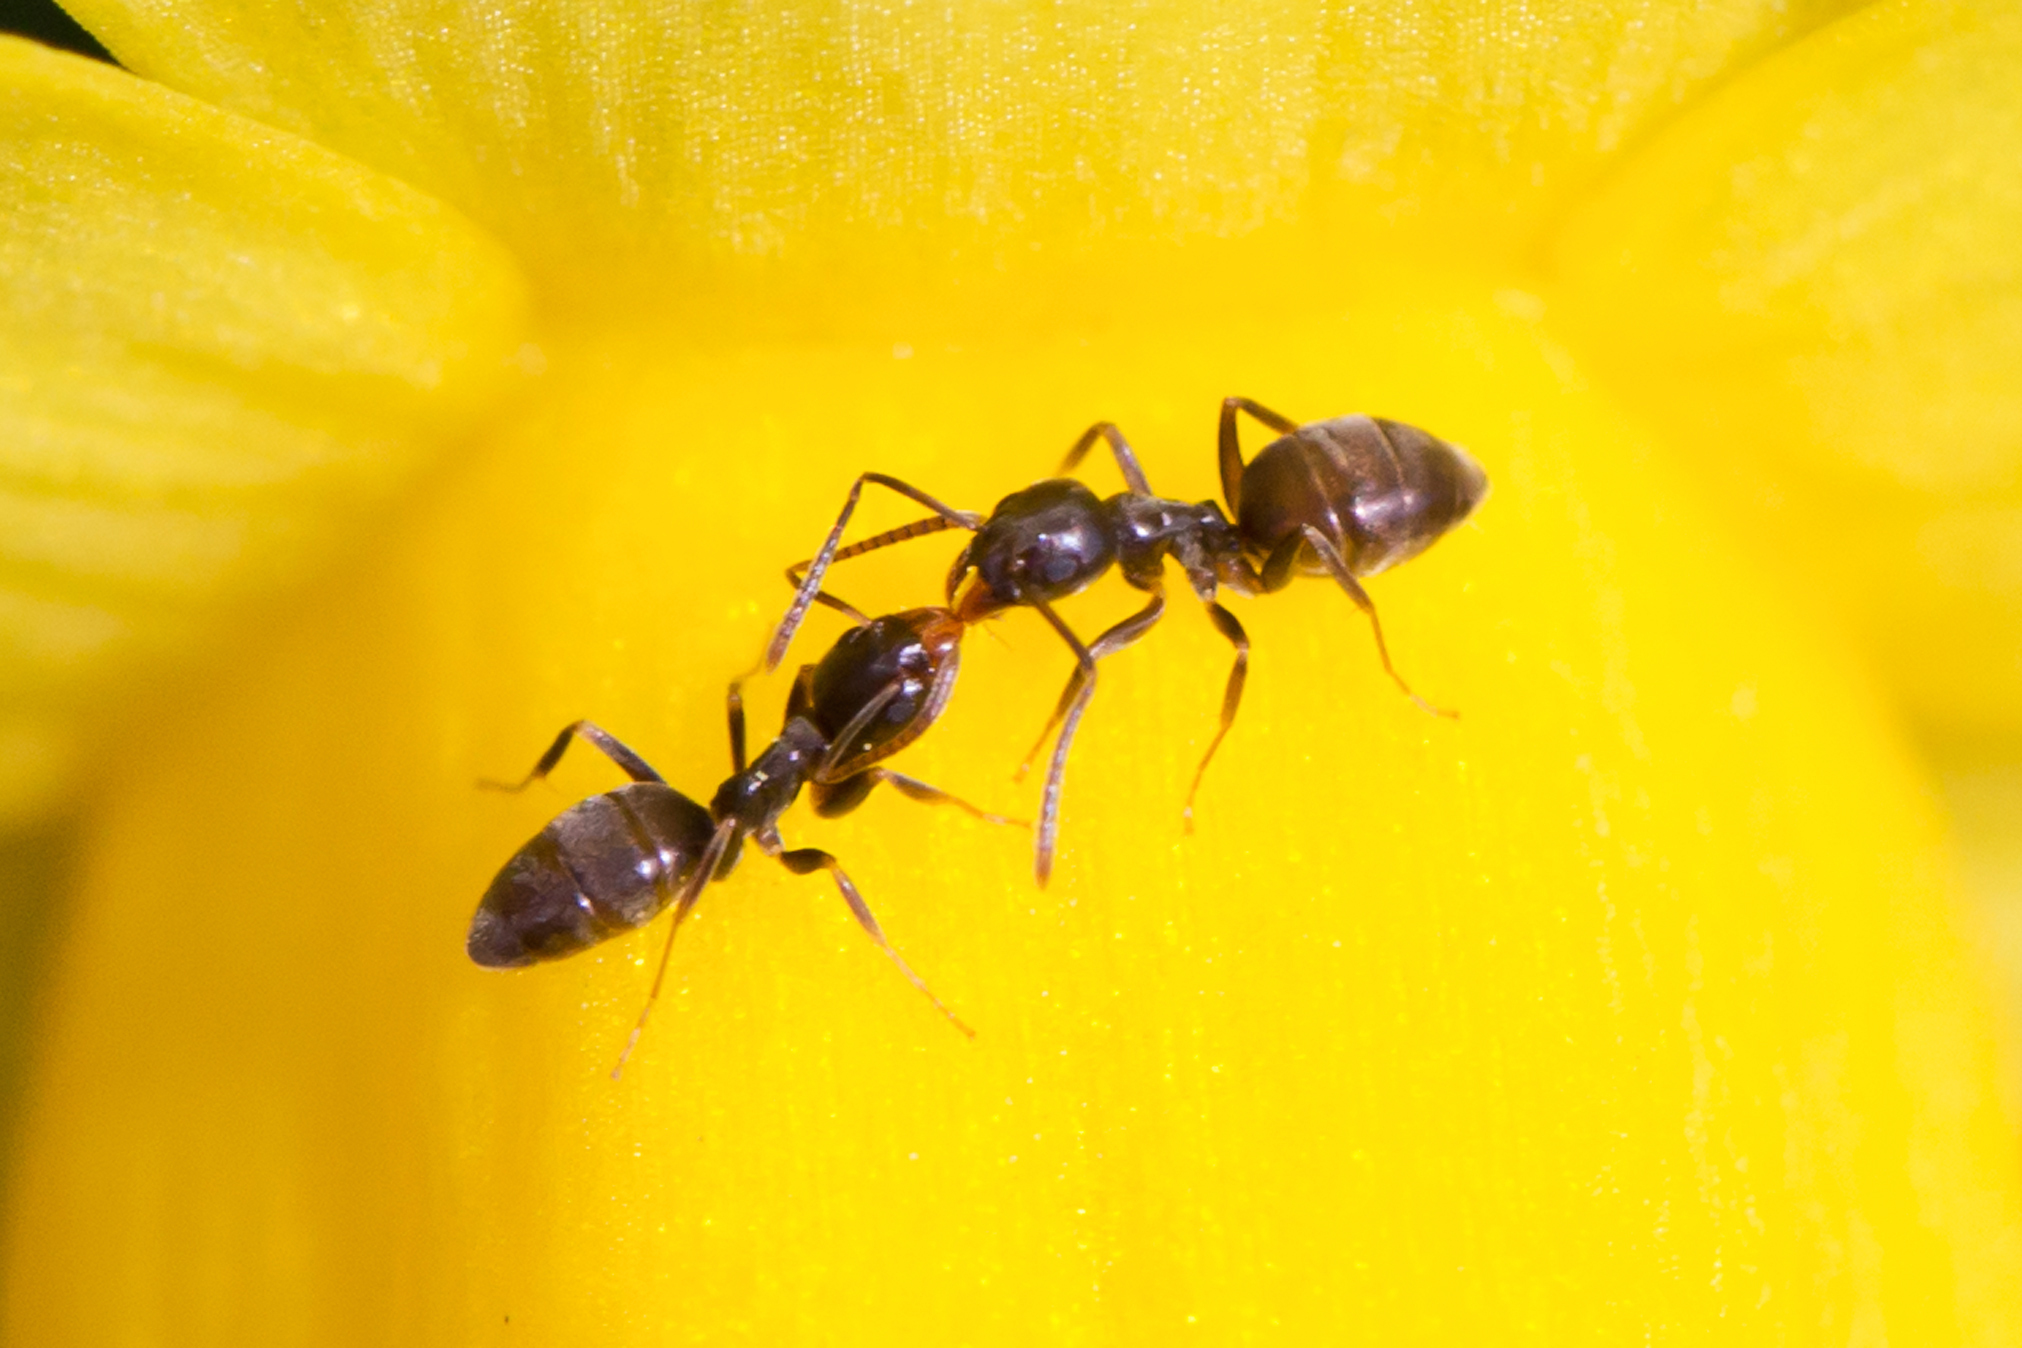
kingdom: Animalia
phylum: Arthropoda
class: Insecta
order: Hymenoptera
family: Formicidae
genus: Tapinoma
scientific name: Tapinoma sessile
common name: Odorous house ant
